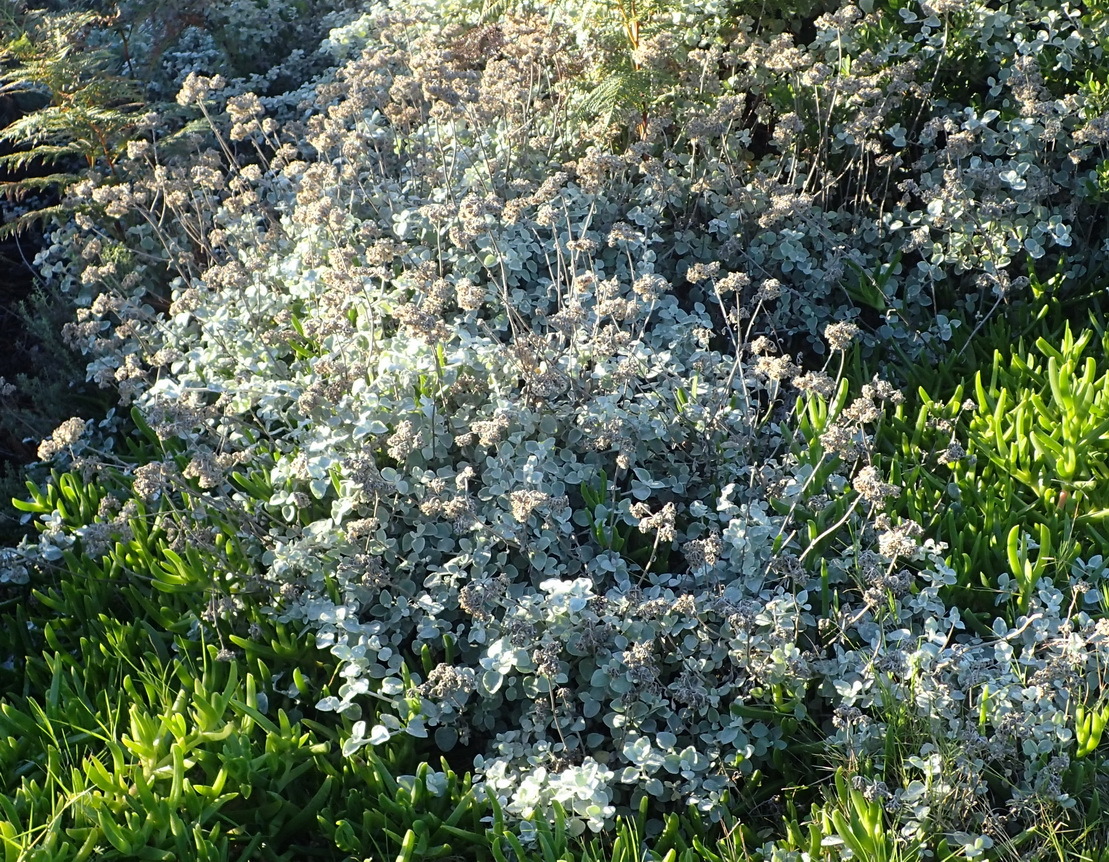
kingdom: Plantae
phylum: Tracheophyta
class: Magnoliopsida
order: Asterales
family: Asteraceae
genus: Helichrysum
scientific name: Helichrysum petiolare
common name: Licorice-plant
